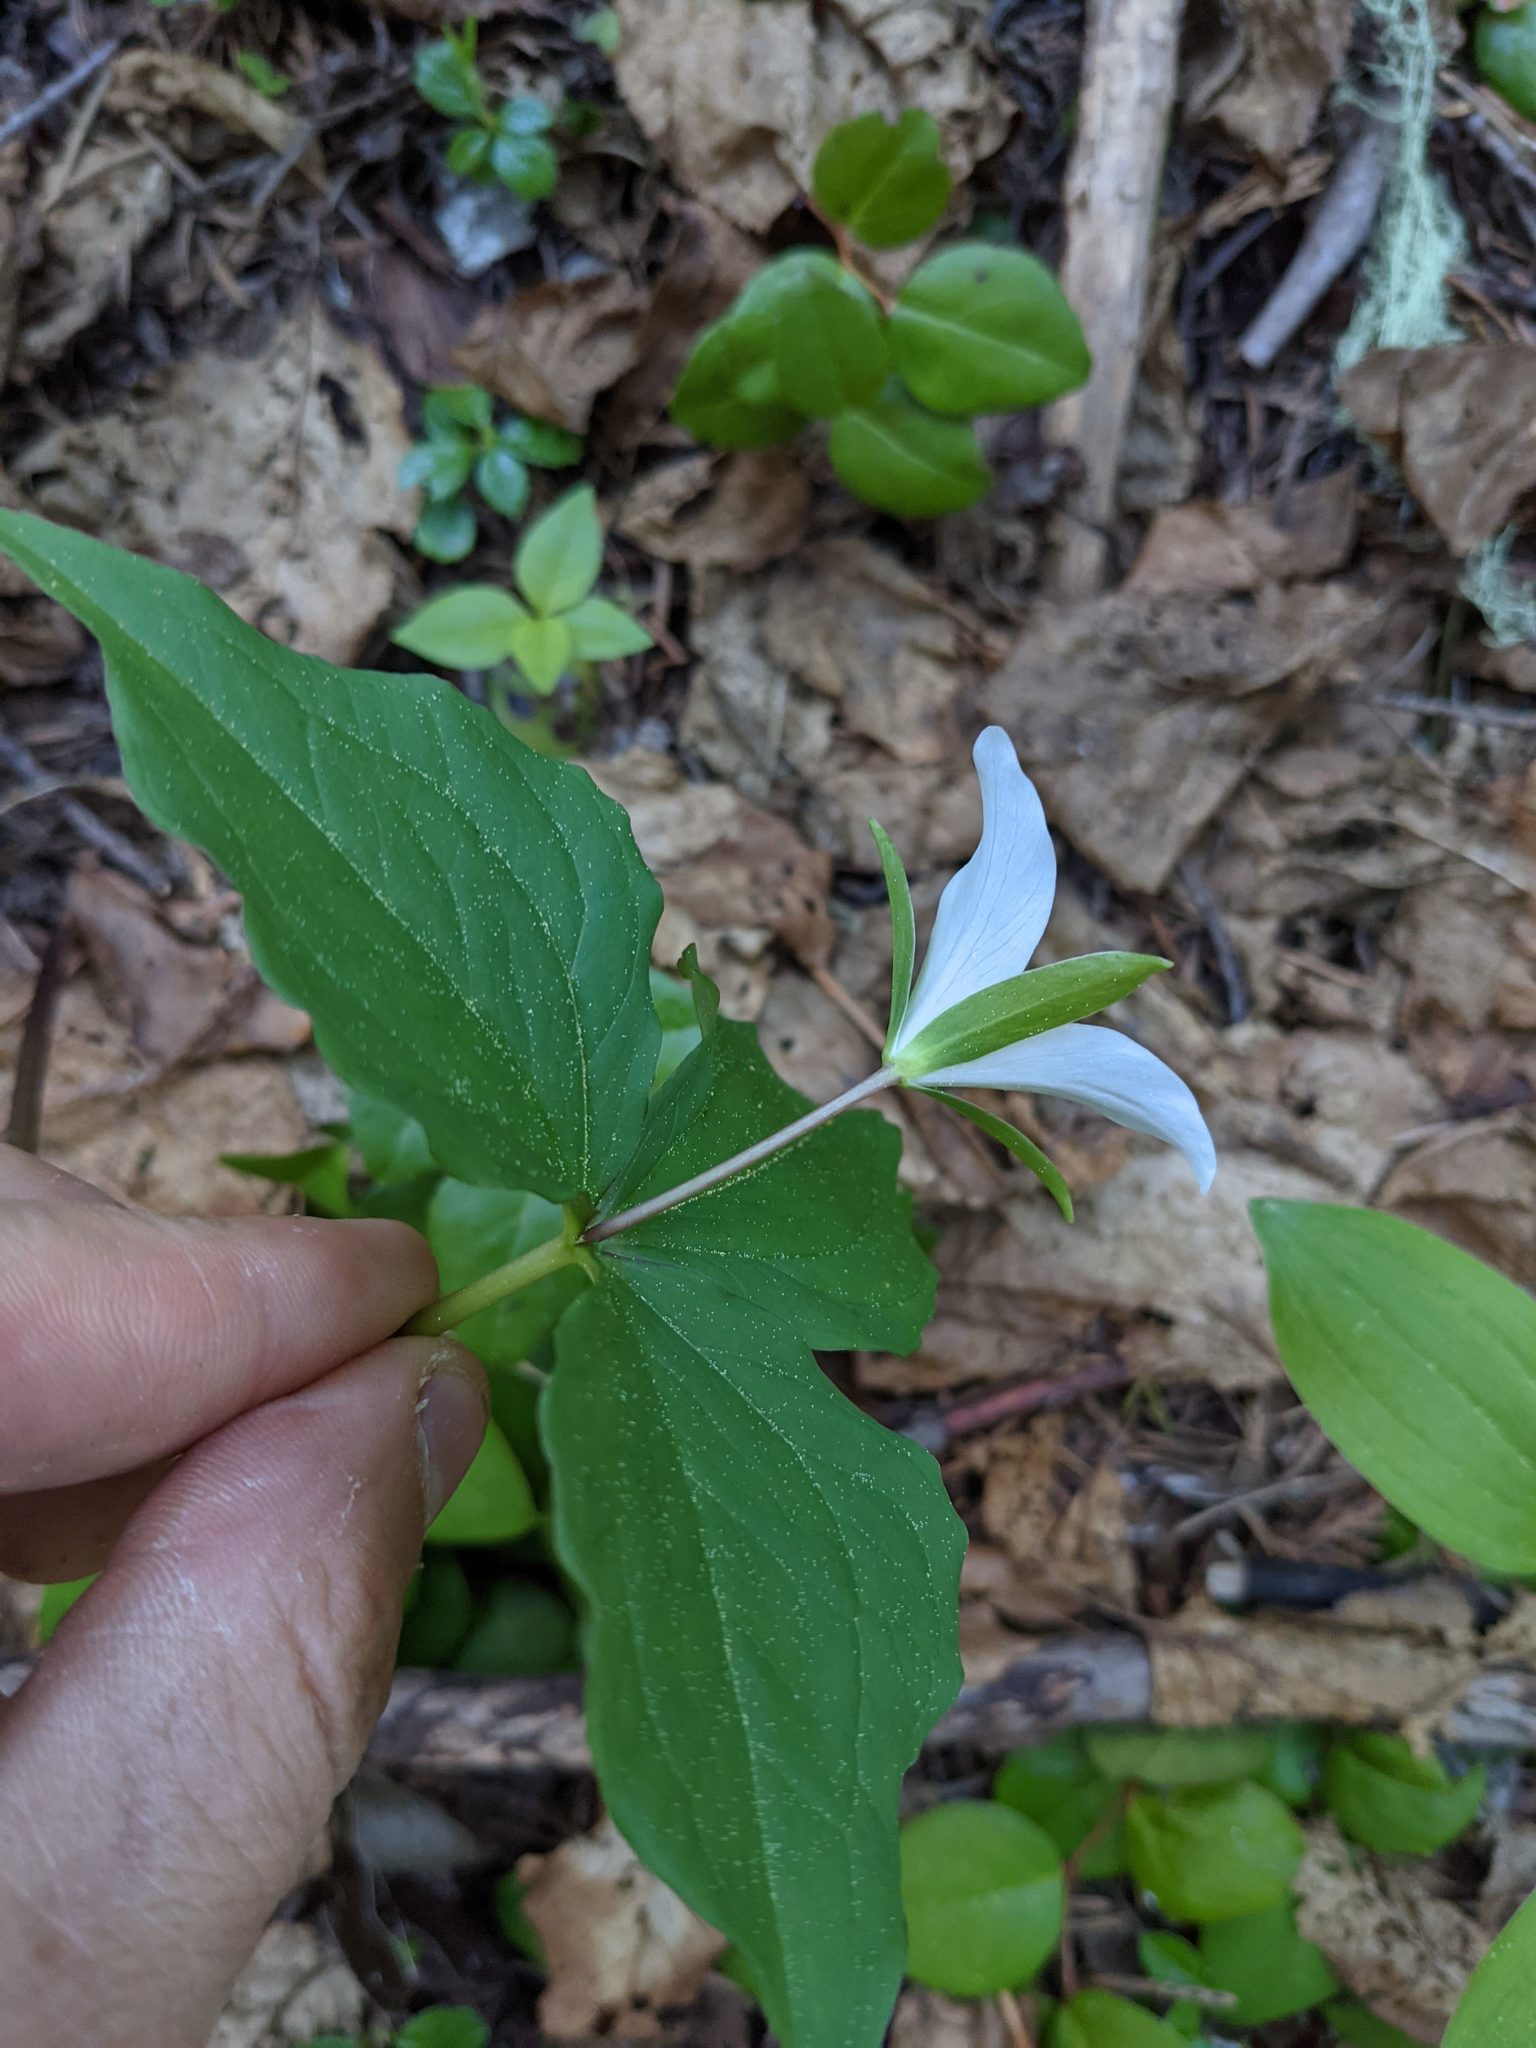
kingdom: Plantae
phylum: Tracheophyta
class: Liliopsida
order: Liliales
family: Melanthiaceae
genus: Trillium
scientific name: Trillium ovatum
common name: Pacific trillium
